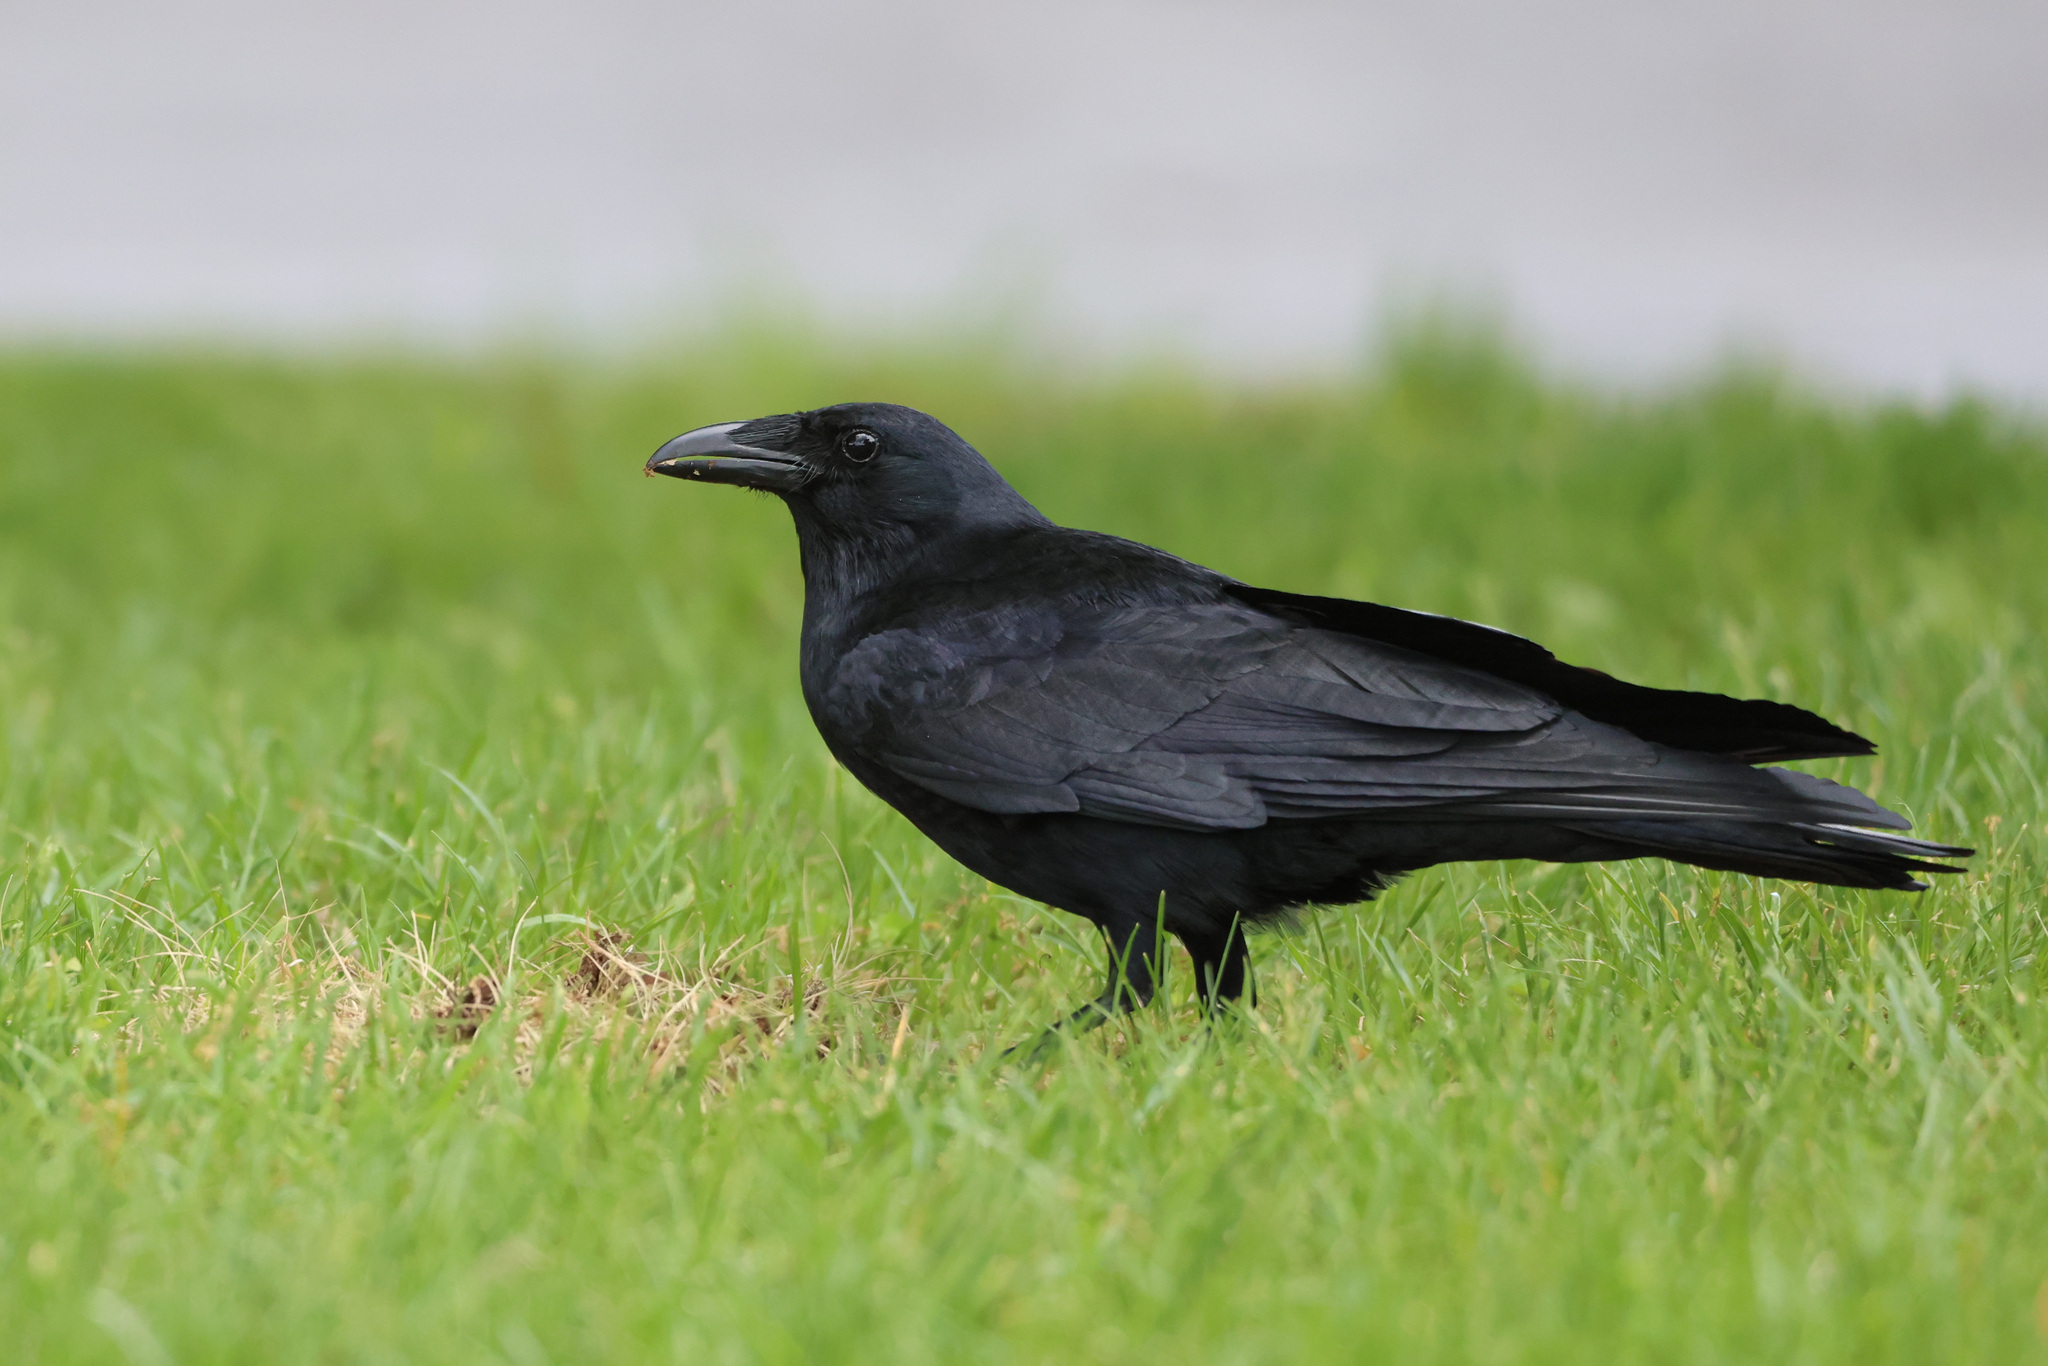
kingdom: Animalia
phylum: Chordata
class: Aves
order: Passeriformes
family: Corvidae
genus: Corvus
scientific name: Corvus ossifragus
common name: Fish crow
